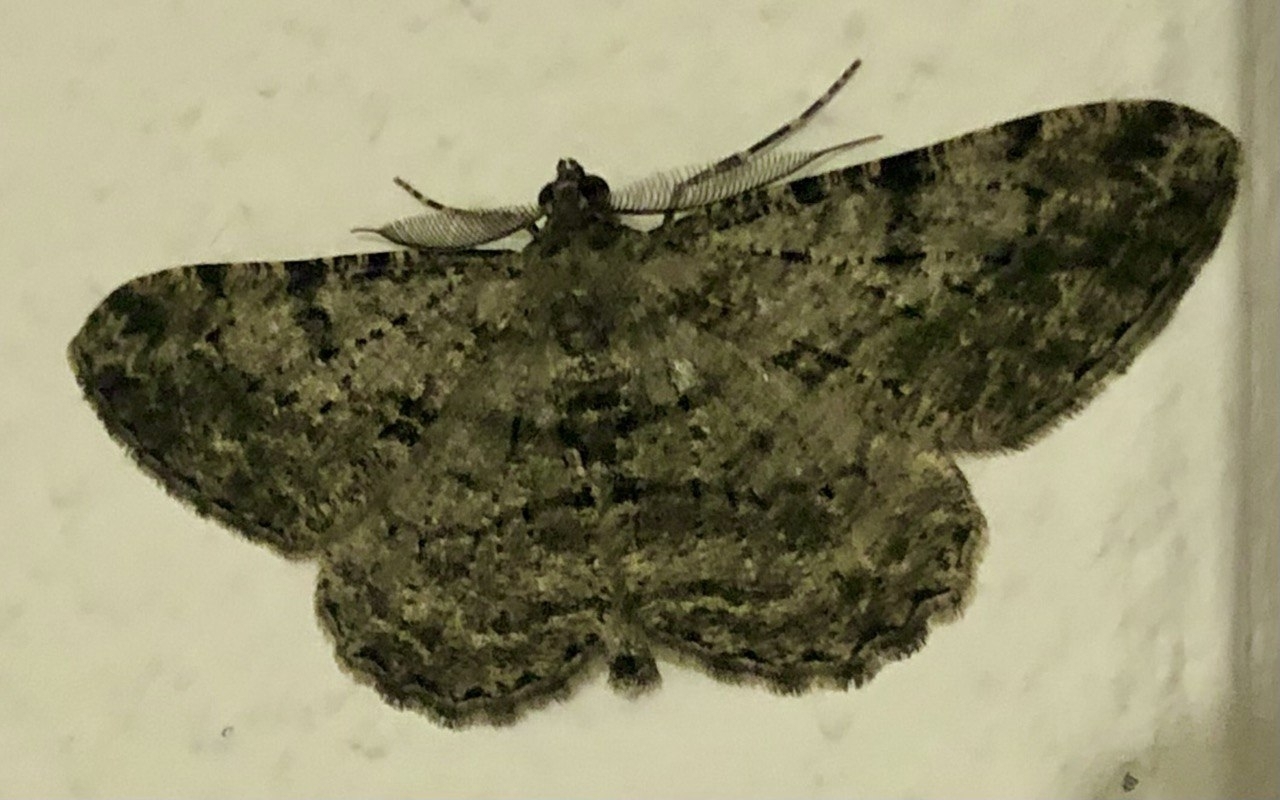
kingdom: Animalia
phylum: Arthropoda
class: Insecta
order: Lepidoptera
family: Geometridae
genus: Peribatodes
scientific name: Peribatodes rhomboidaria
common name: Willow beauty
